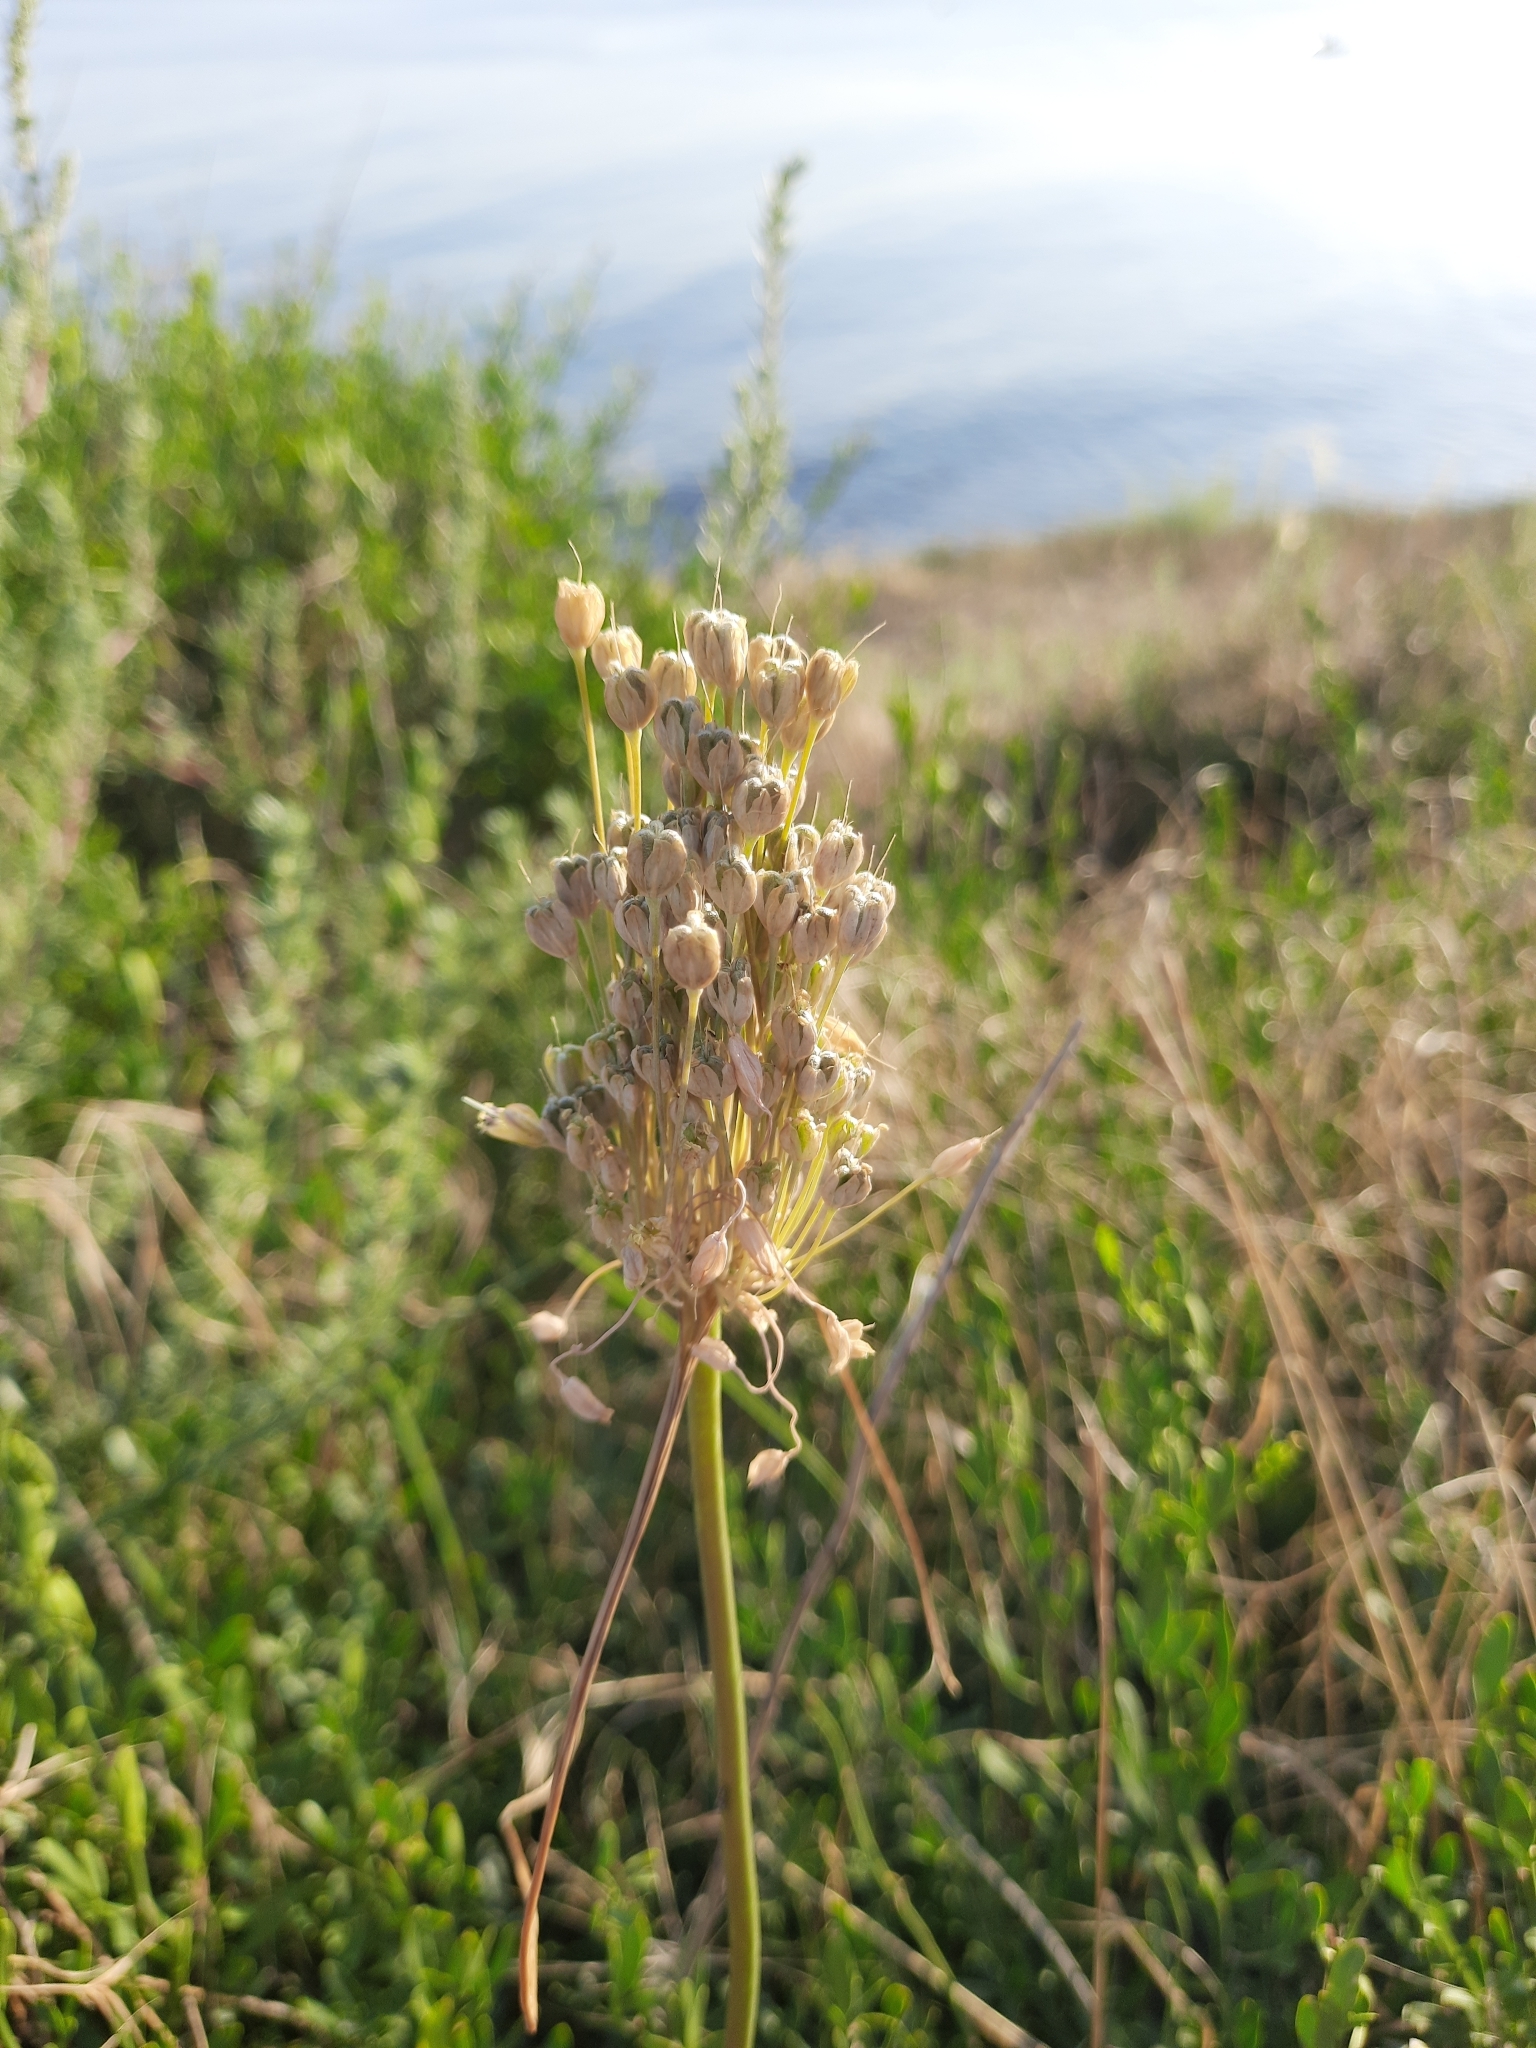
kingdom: Plantae
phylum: Tracheophyta
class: Liliopsida
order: Asparagales
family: Amaryllidaceae
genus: Allium
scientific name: Allium flavum
